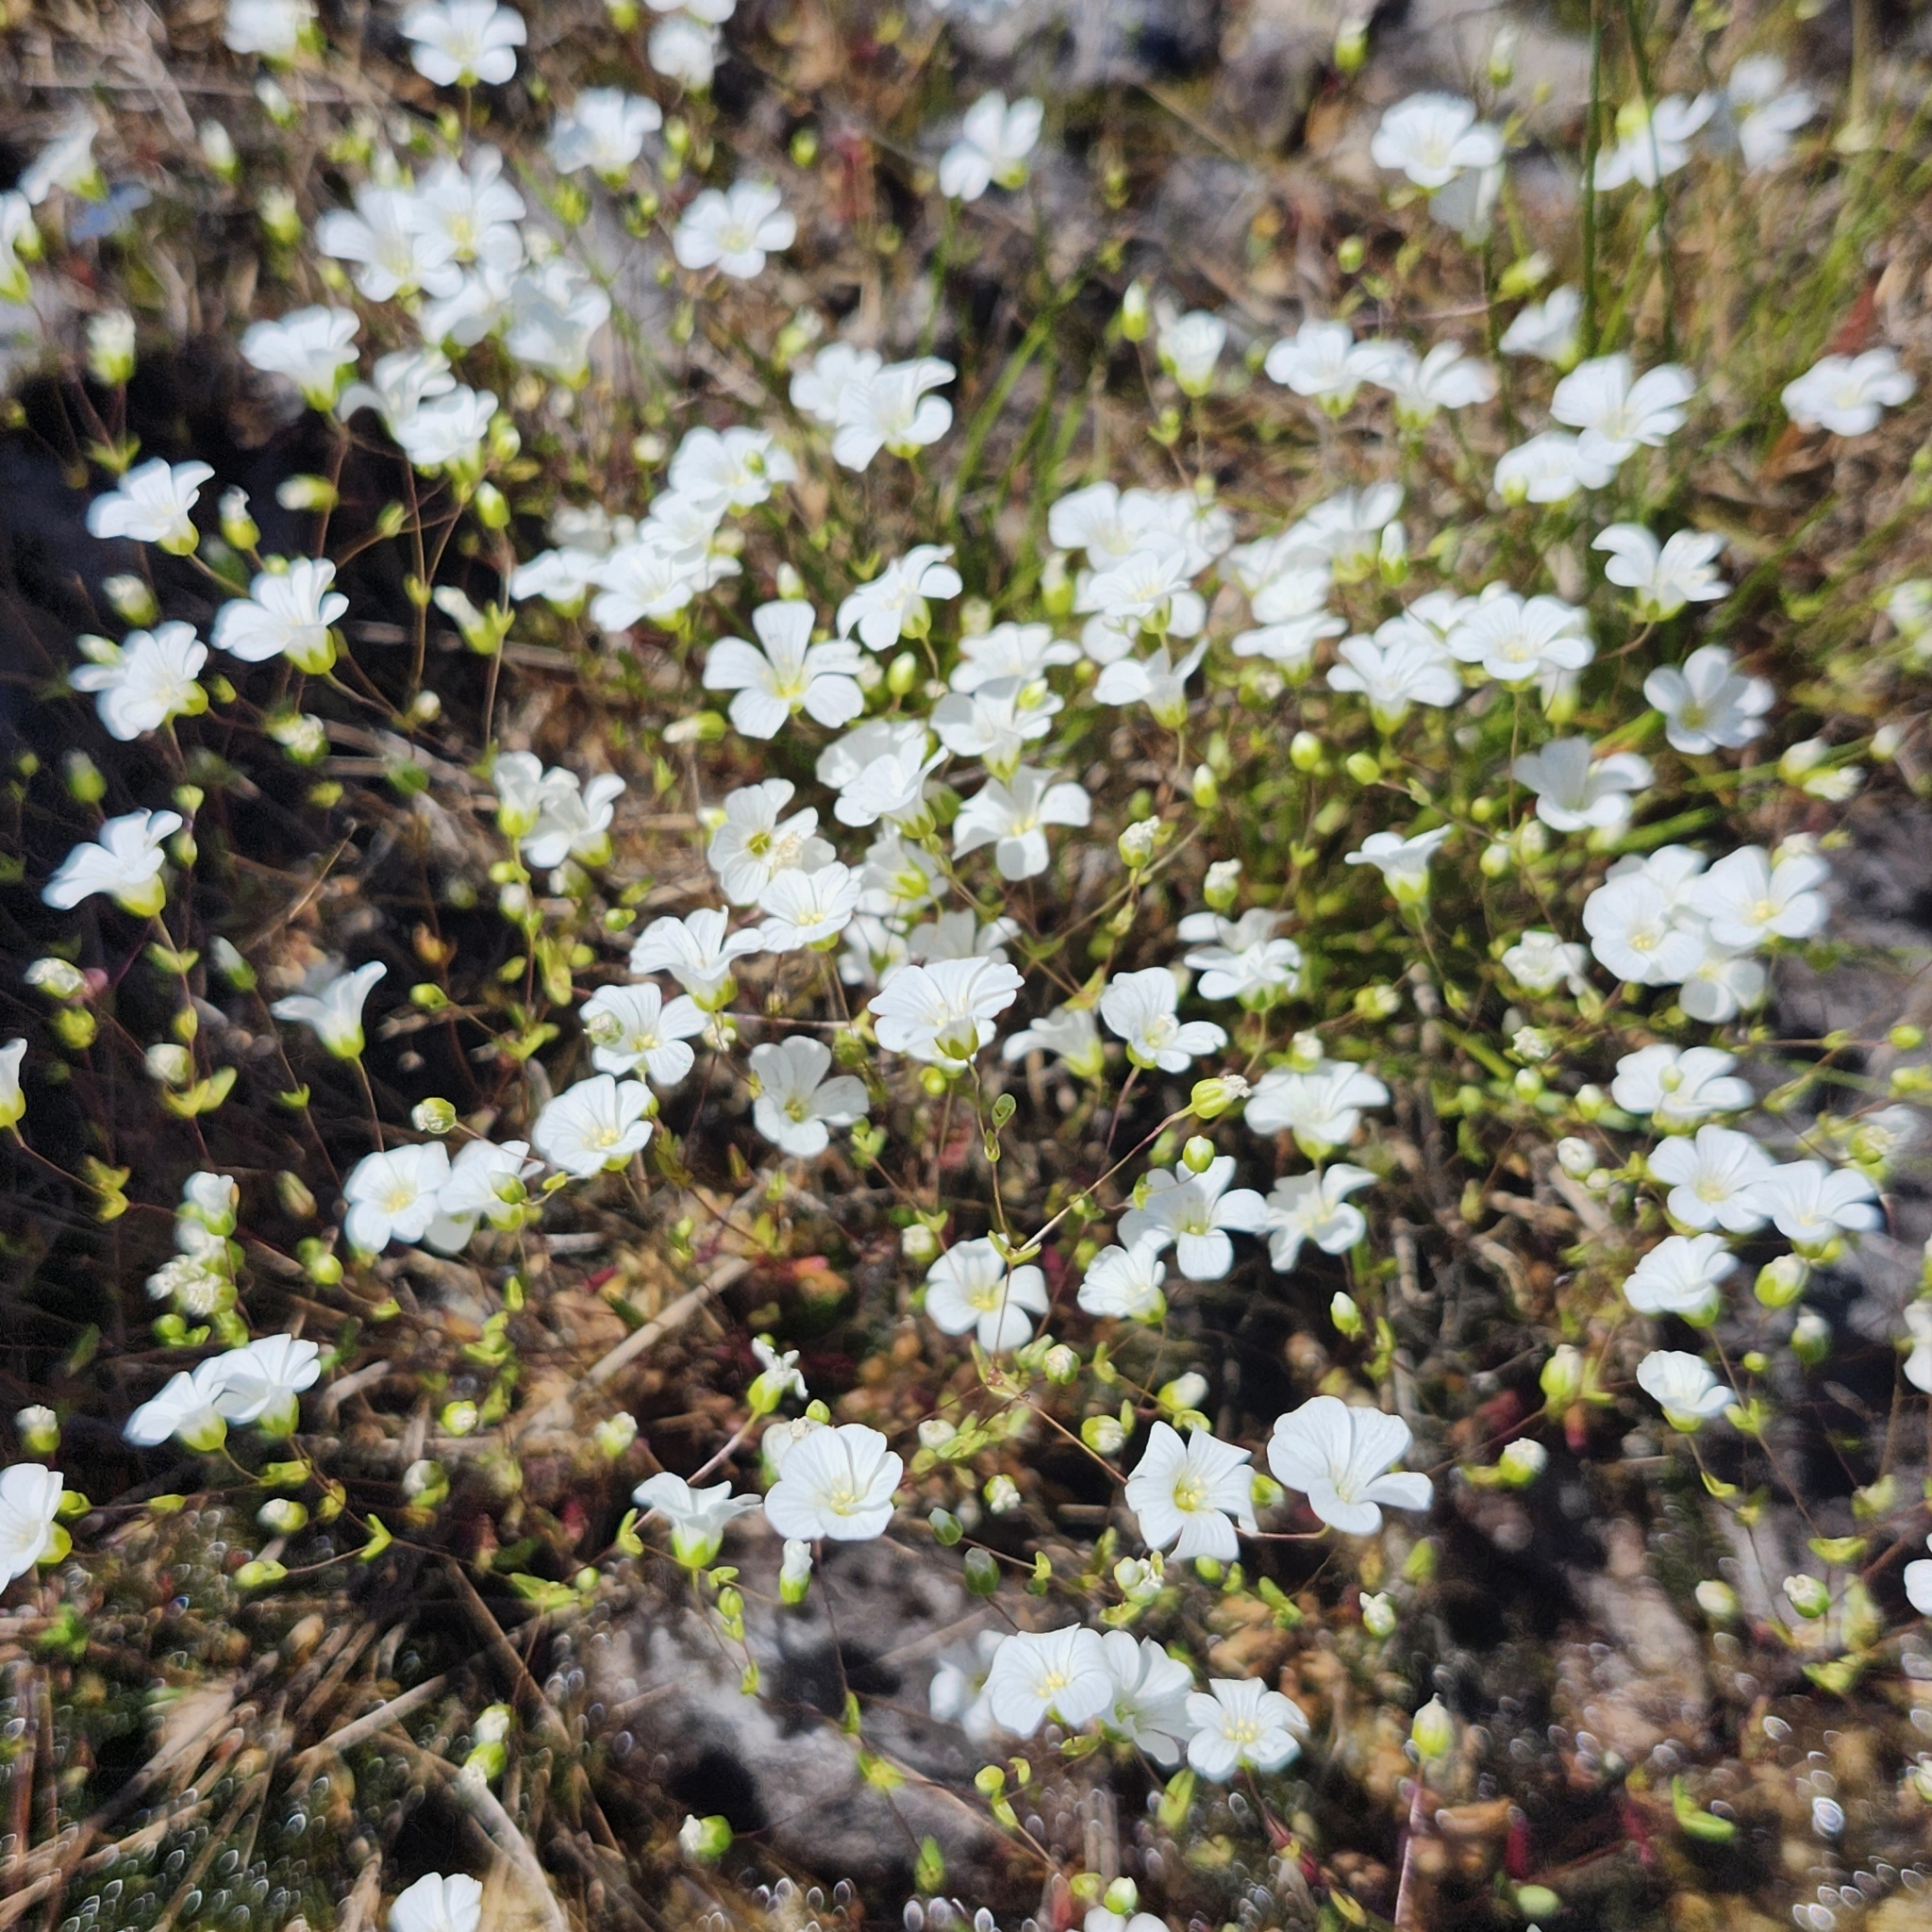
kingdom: Plantae
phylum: Tracheophyta
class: Magnoliopsida
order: Caryophyllales
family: Caryophyllaceae
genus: Geocarpon
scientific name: Geocarpon uniflorum
